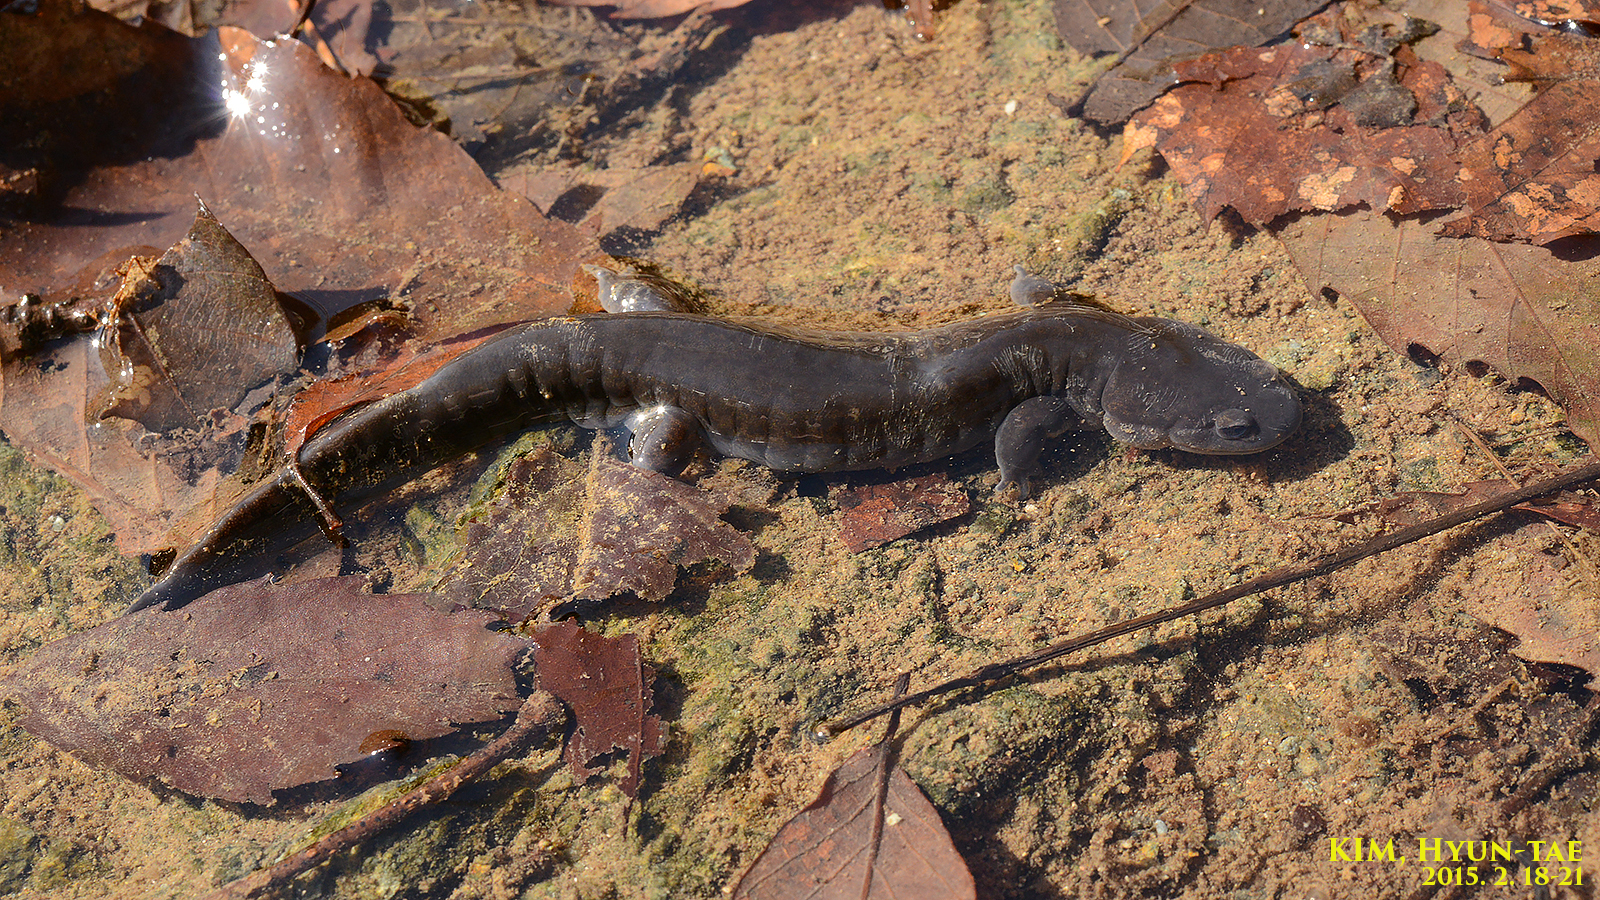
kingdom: Animalia
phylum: Chordata
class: Amphibia
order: Caudata
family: Hynobiidae
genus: Hynobius
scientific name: Hynobius yangi
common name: Yangi salamander
